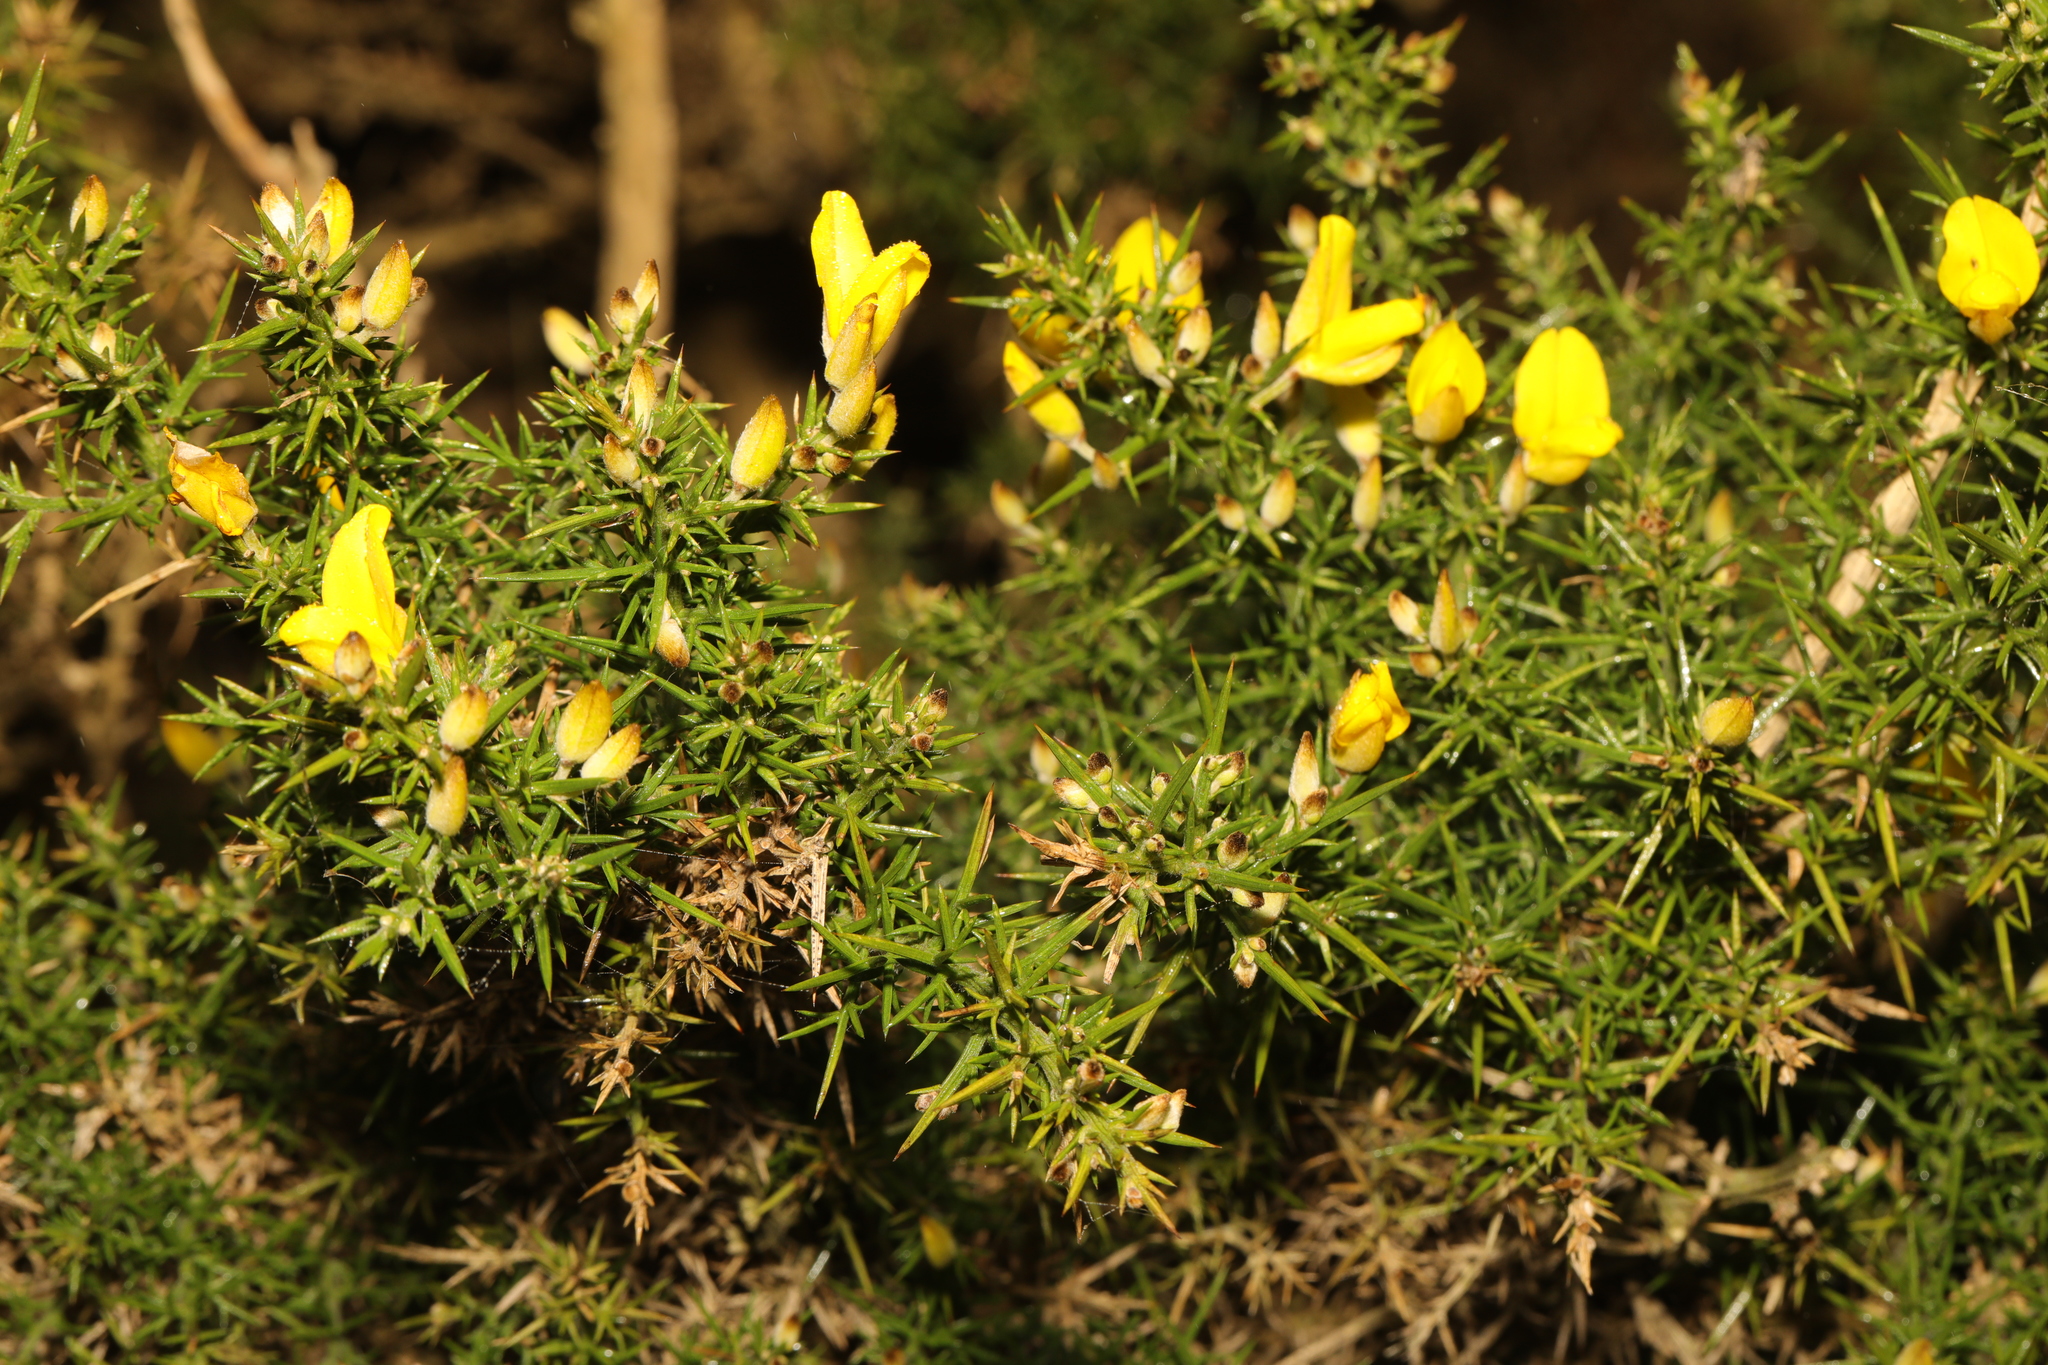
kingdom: Plantae
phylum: Tracheophyta
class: Magnoliopsida
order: Fabales
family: Fabaceae
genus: Ulex
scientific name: Ulex europaeus
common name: Common gorse
